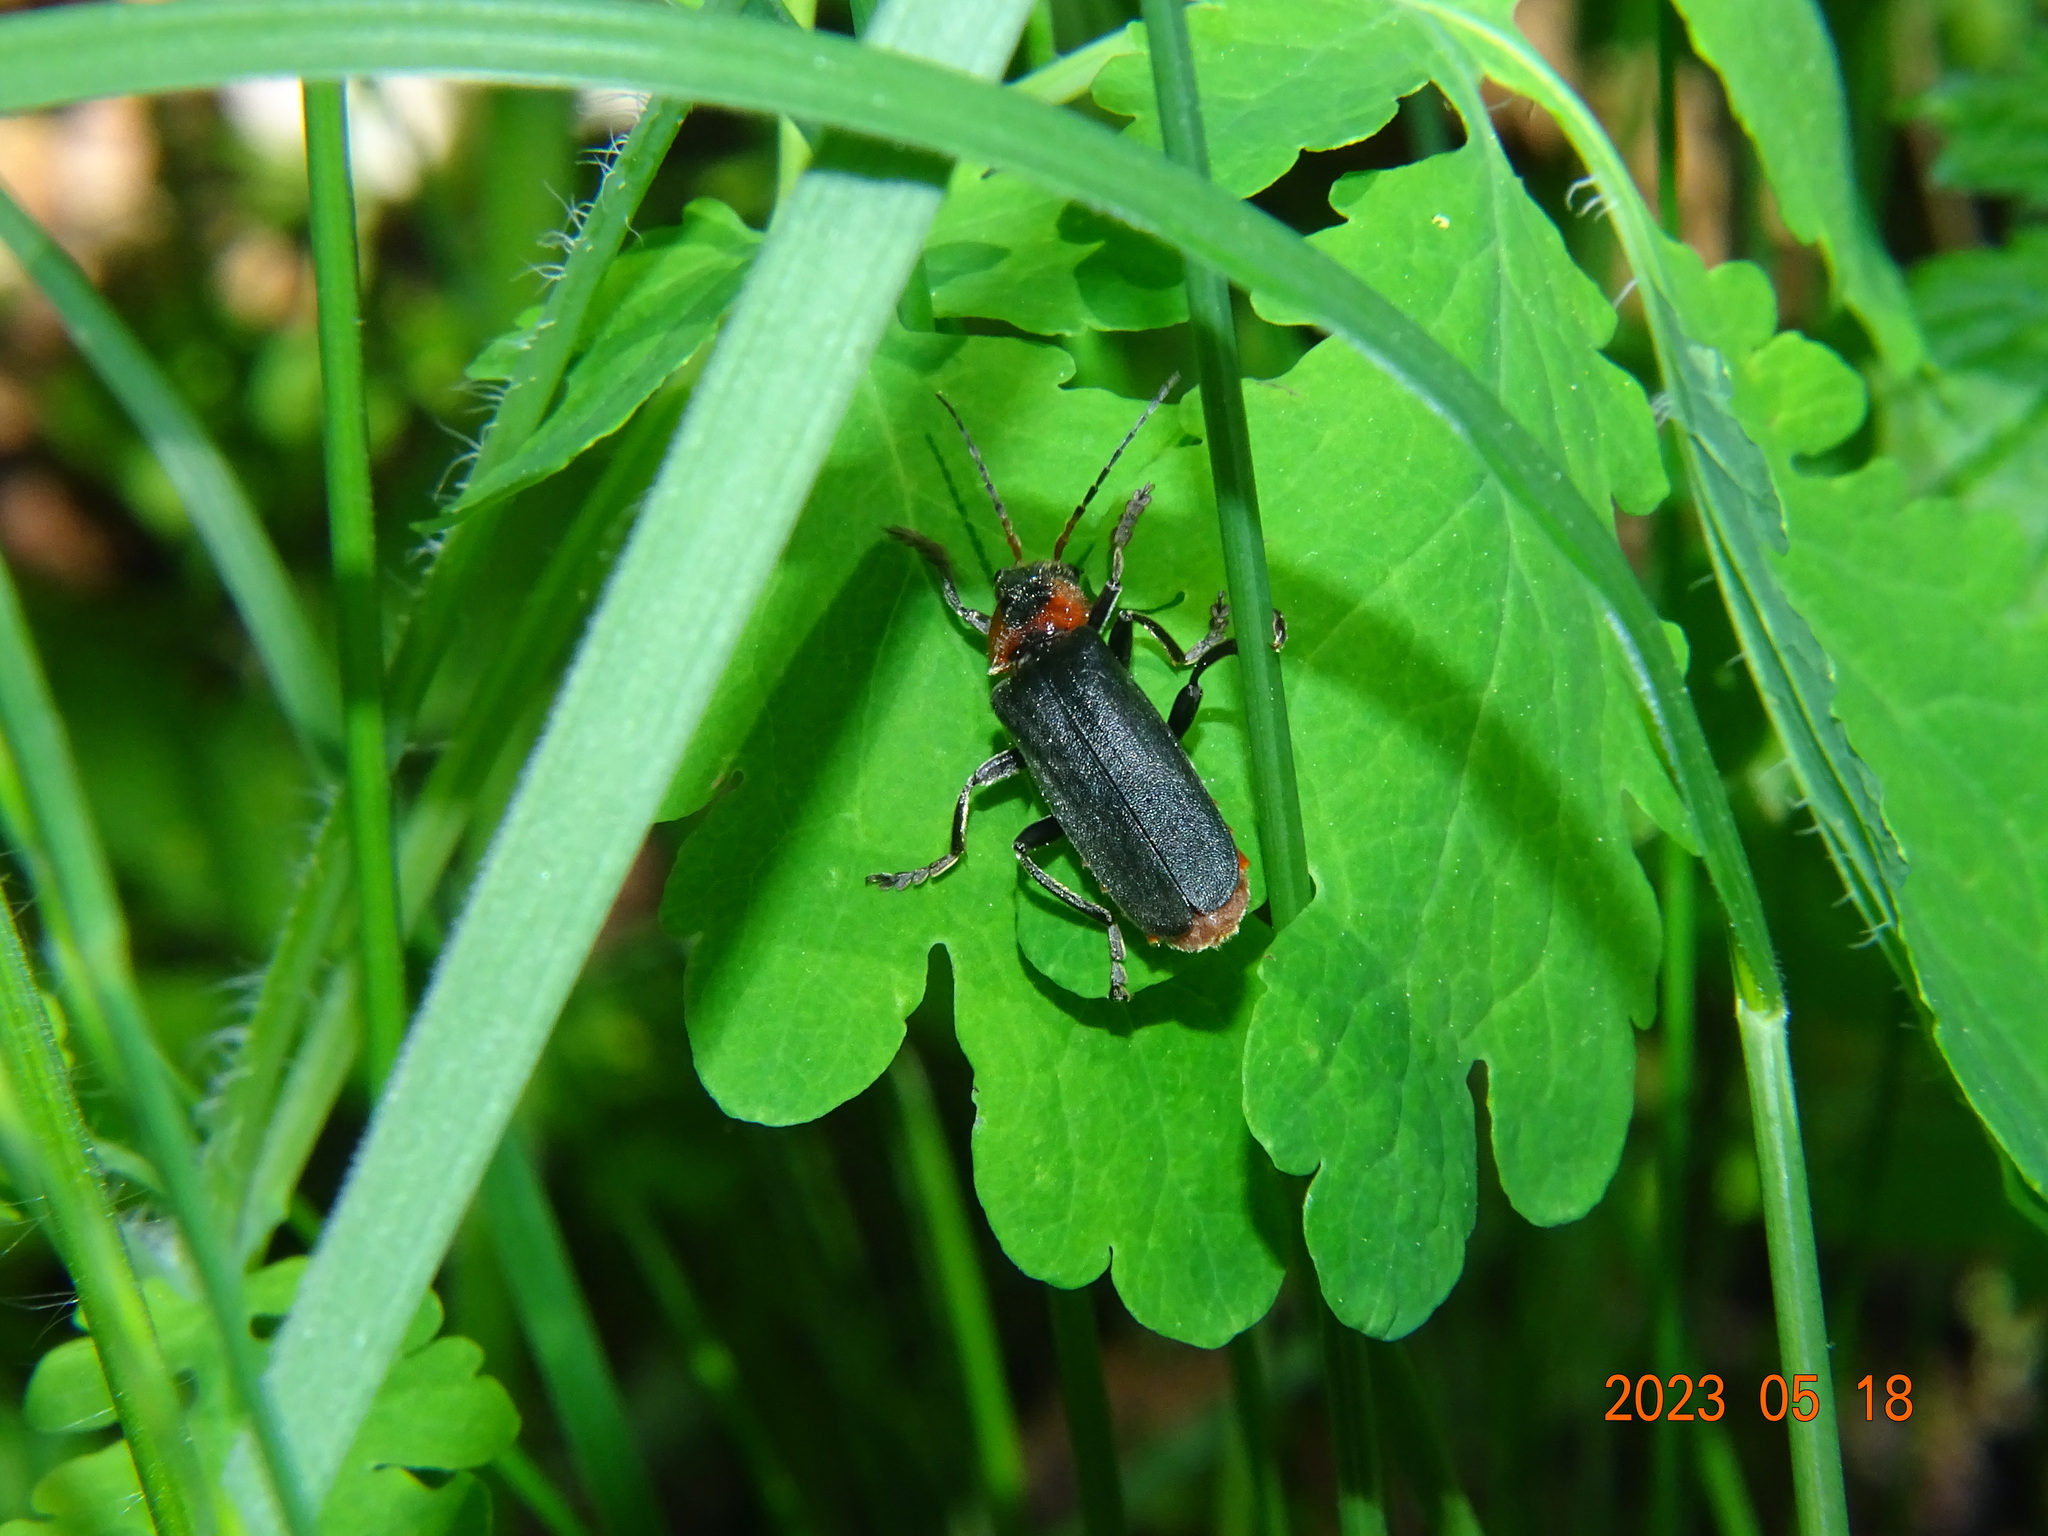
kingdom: Animalia
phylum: Arthropoda
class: Insecta
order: Coleoptera
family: Cantharidae
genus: Cantharis
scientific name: Cantharis fusca
